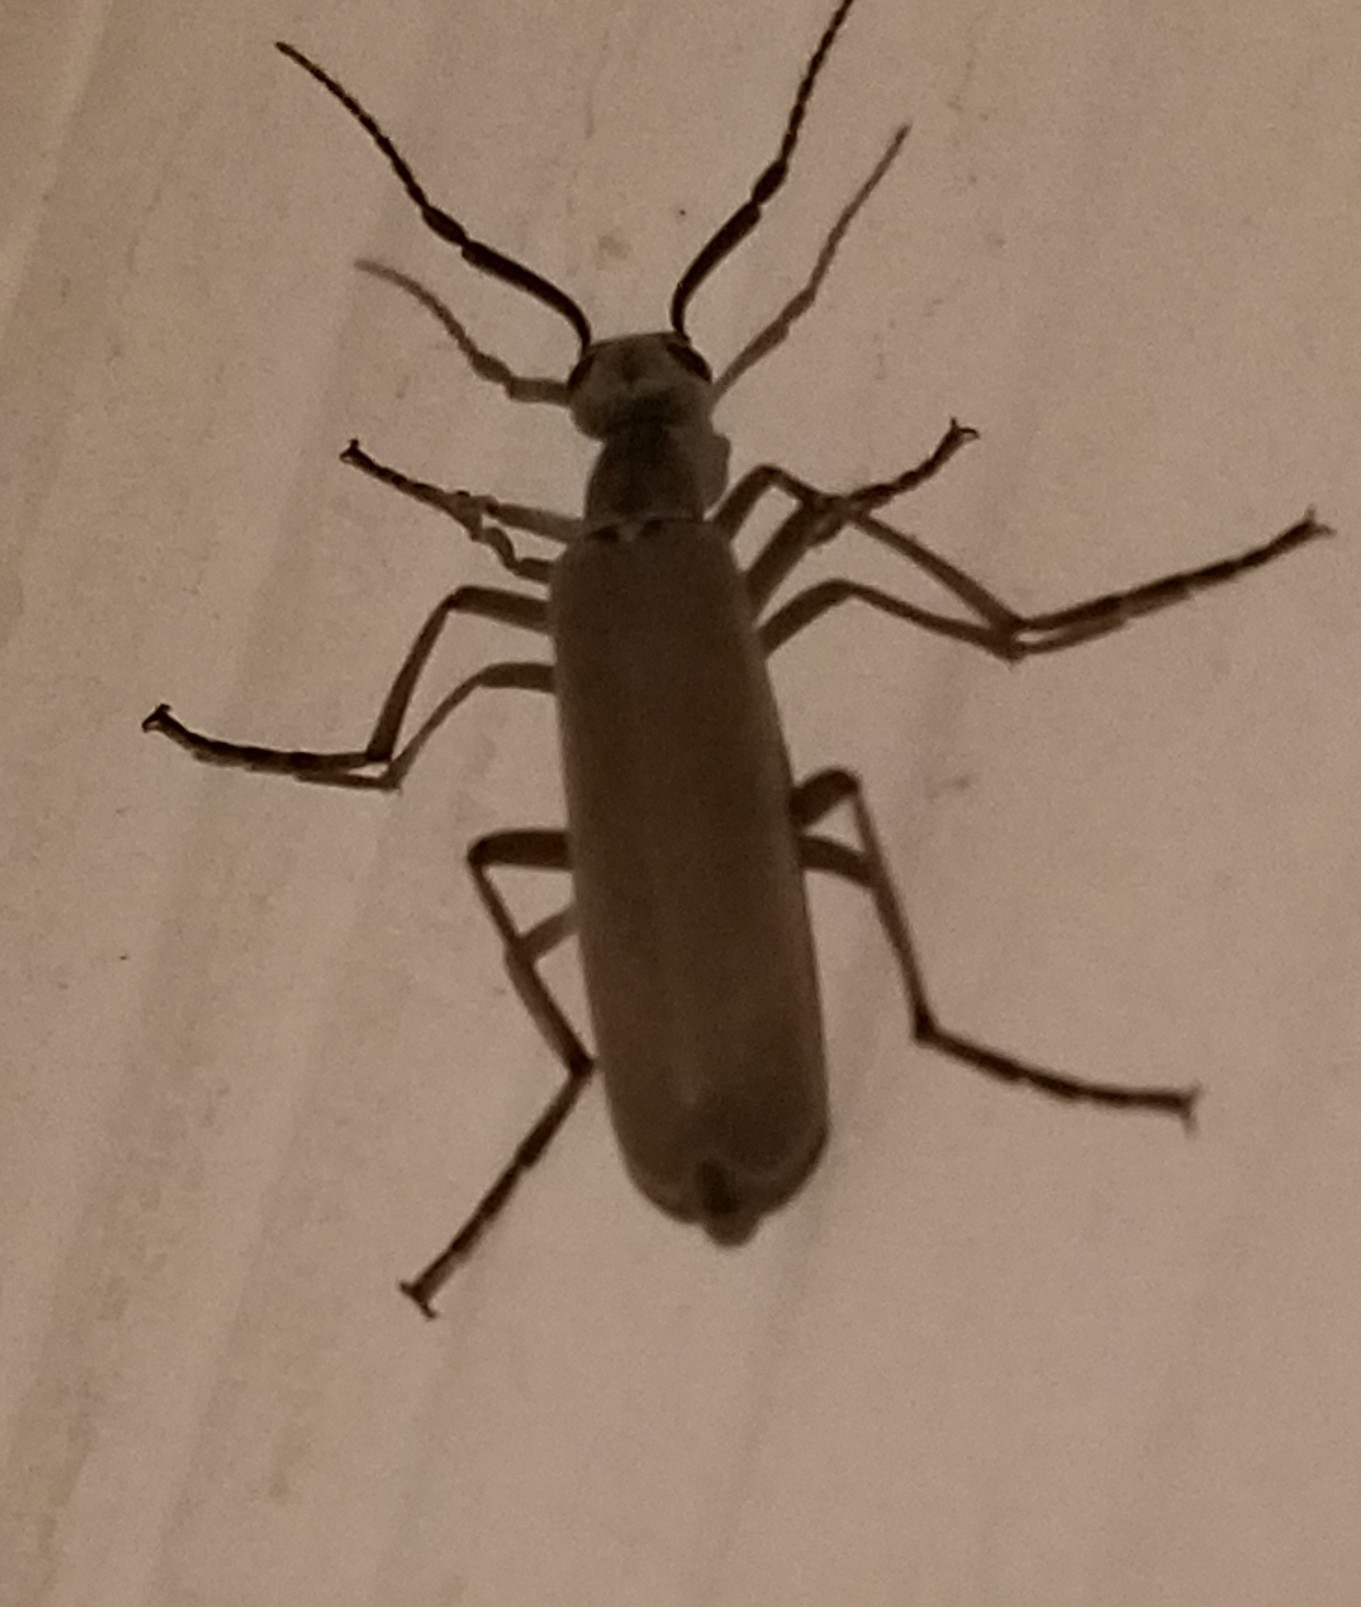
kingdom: Animalia
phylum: Arthropoda
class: Insecta
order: Coleoptera
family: Meloidae
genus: Epicauta
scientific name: Epicauta polingi
